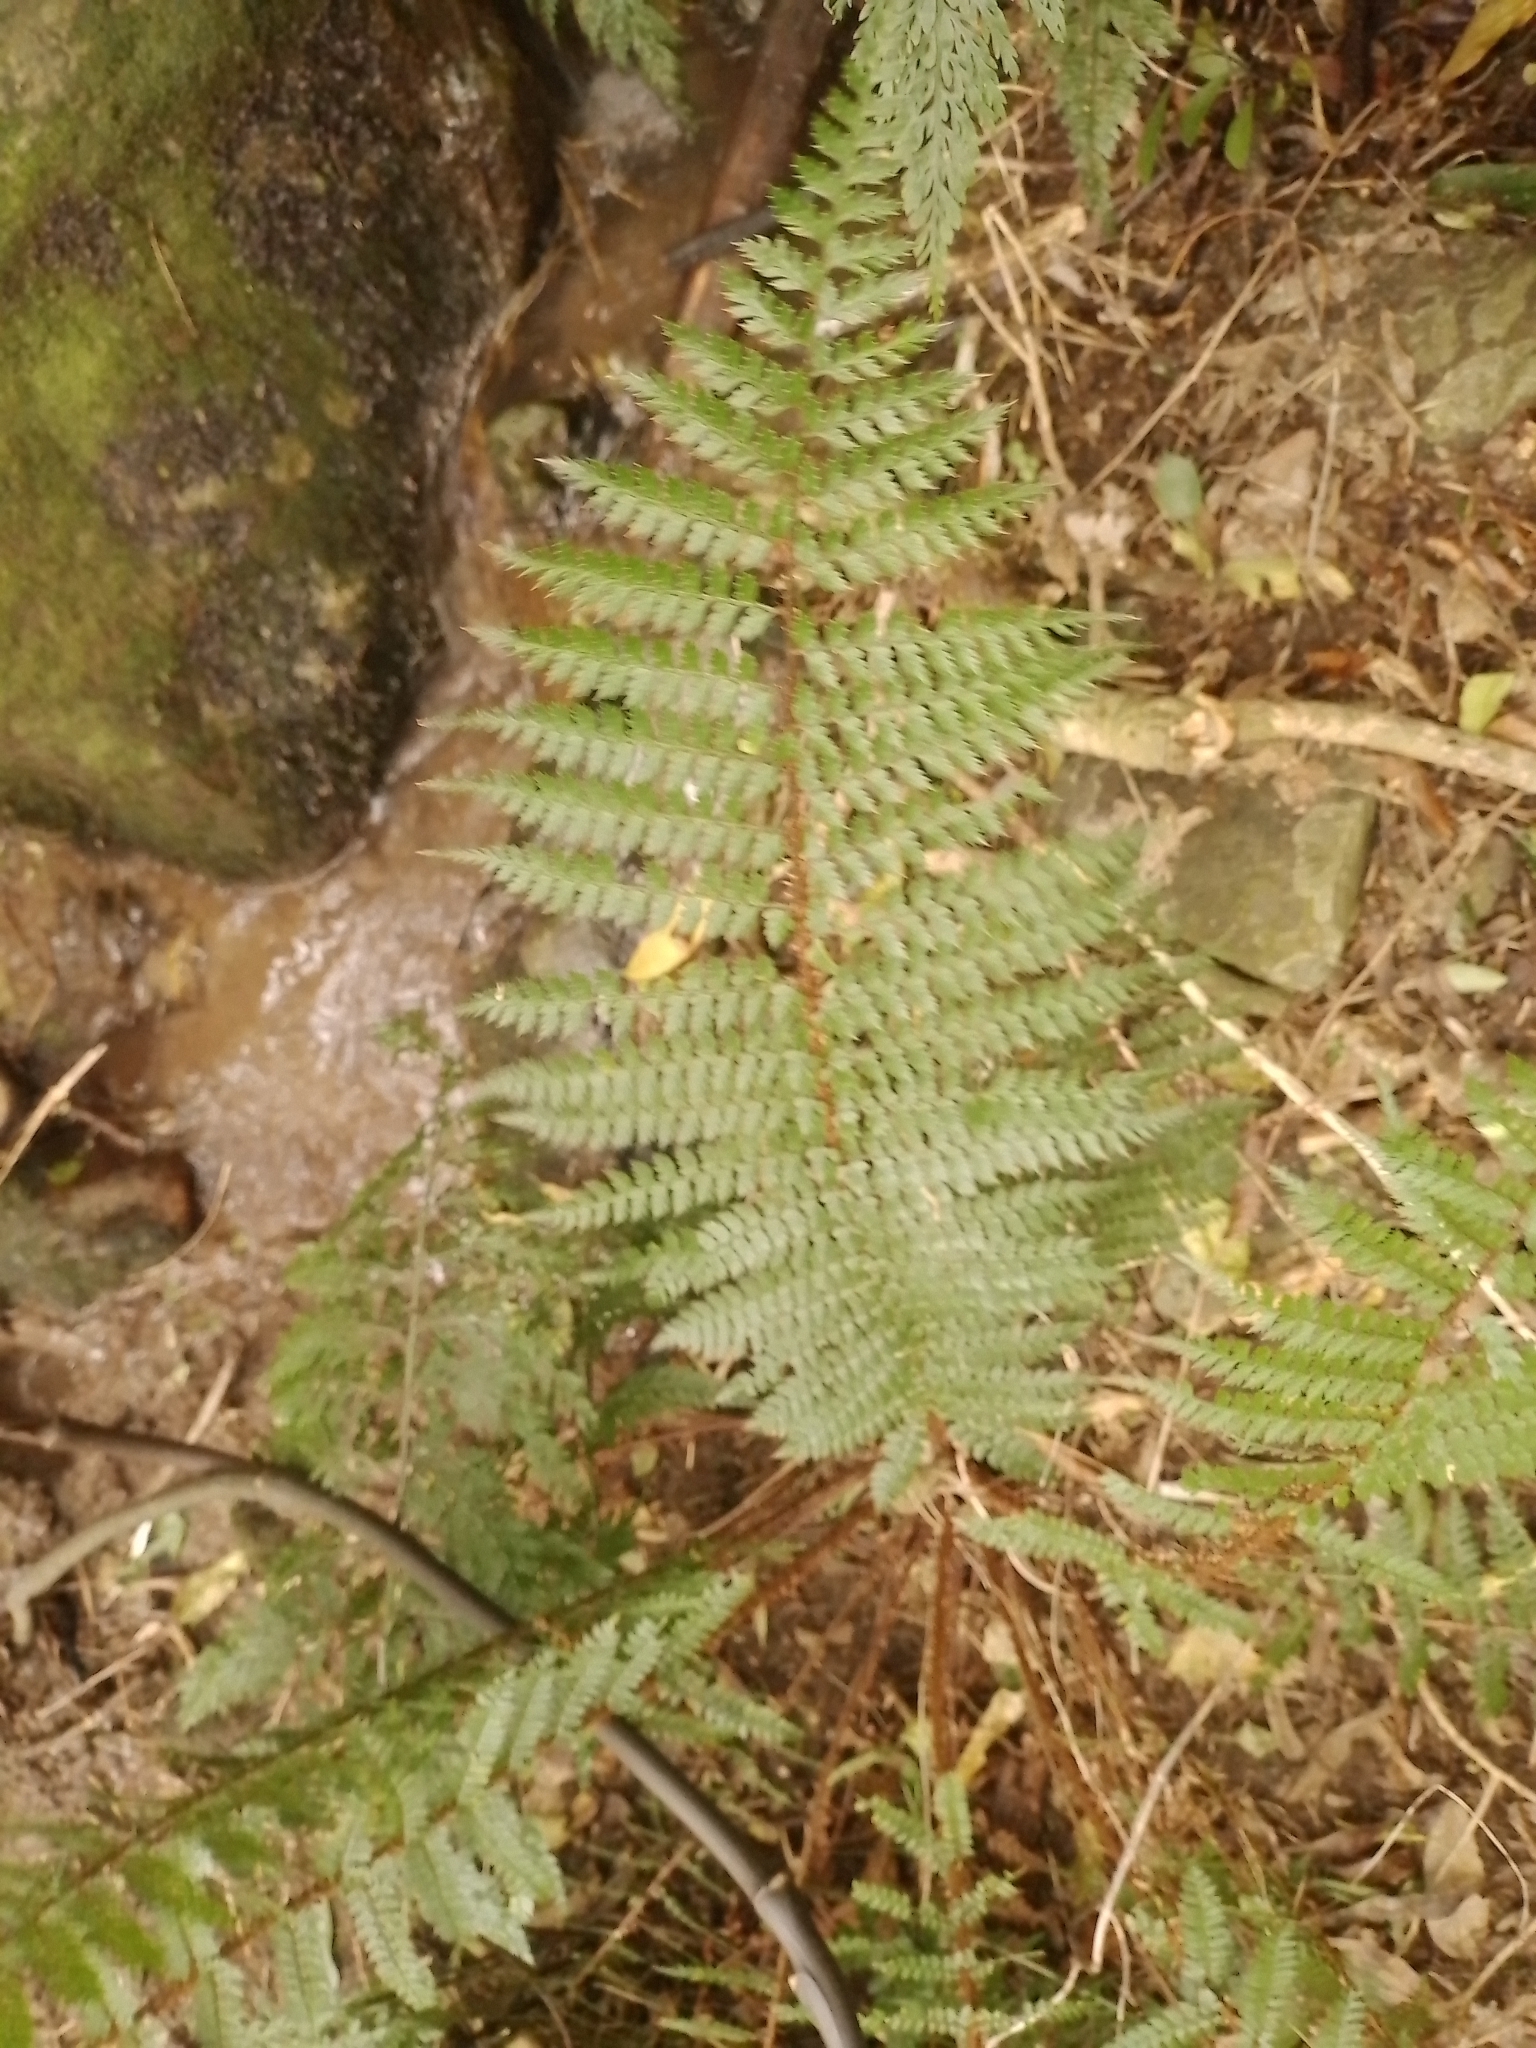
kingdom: Plantae
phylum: Tracheophyta
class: Polypodiopsida
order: Polypodiales
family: Dryopteridaceae
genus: Polystichum
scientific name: Polystichum vestitum
